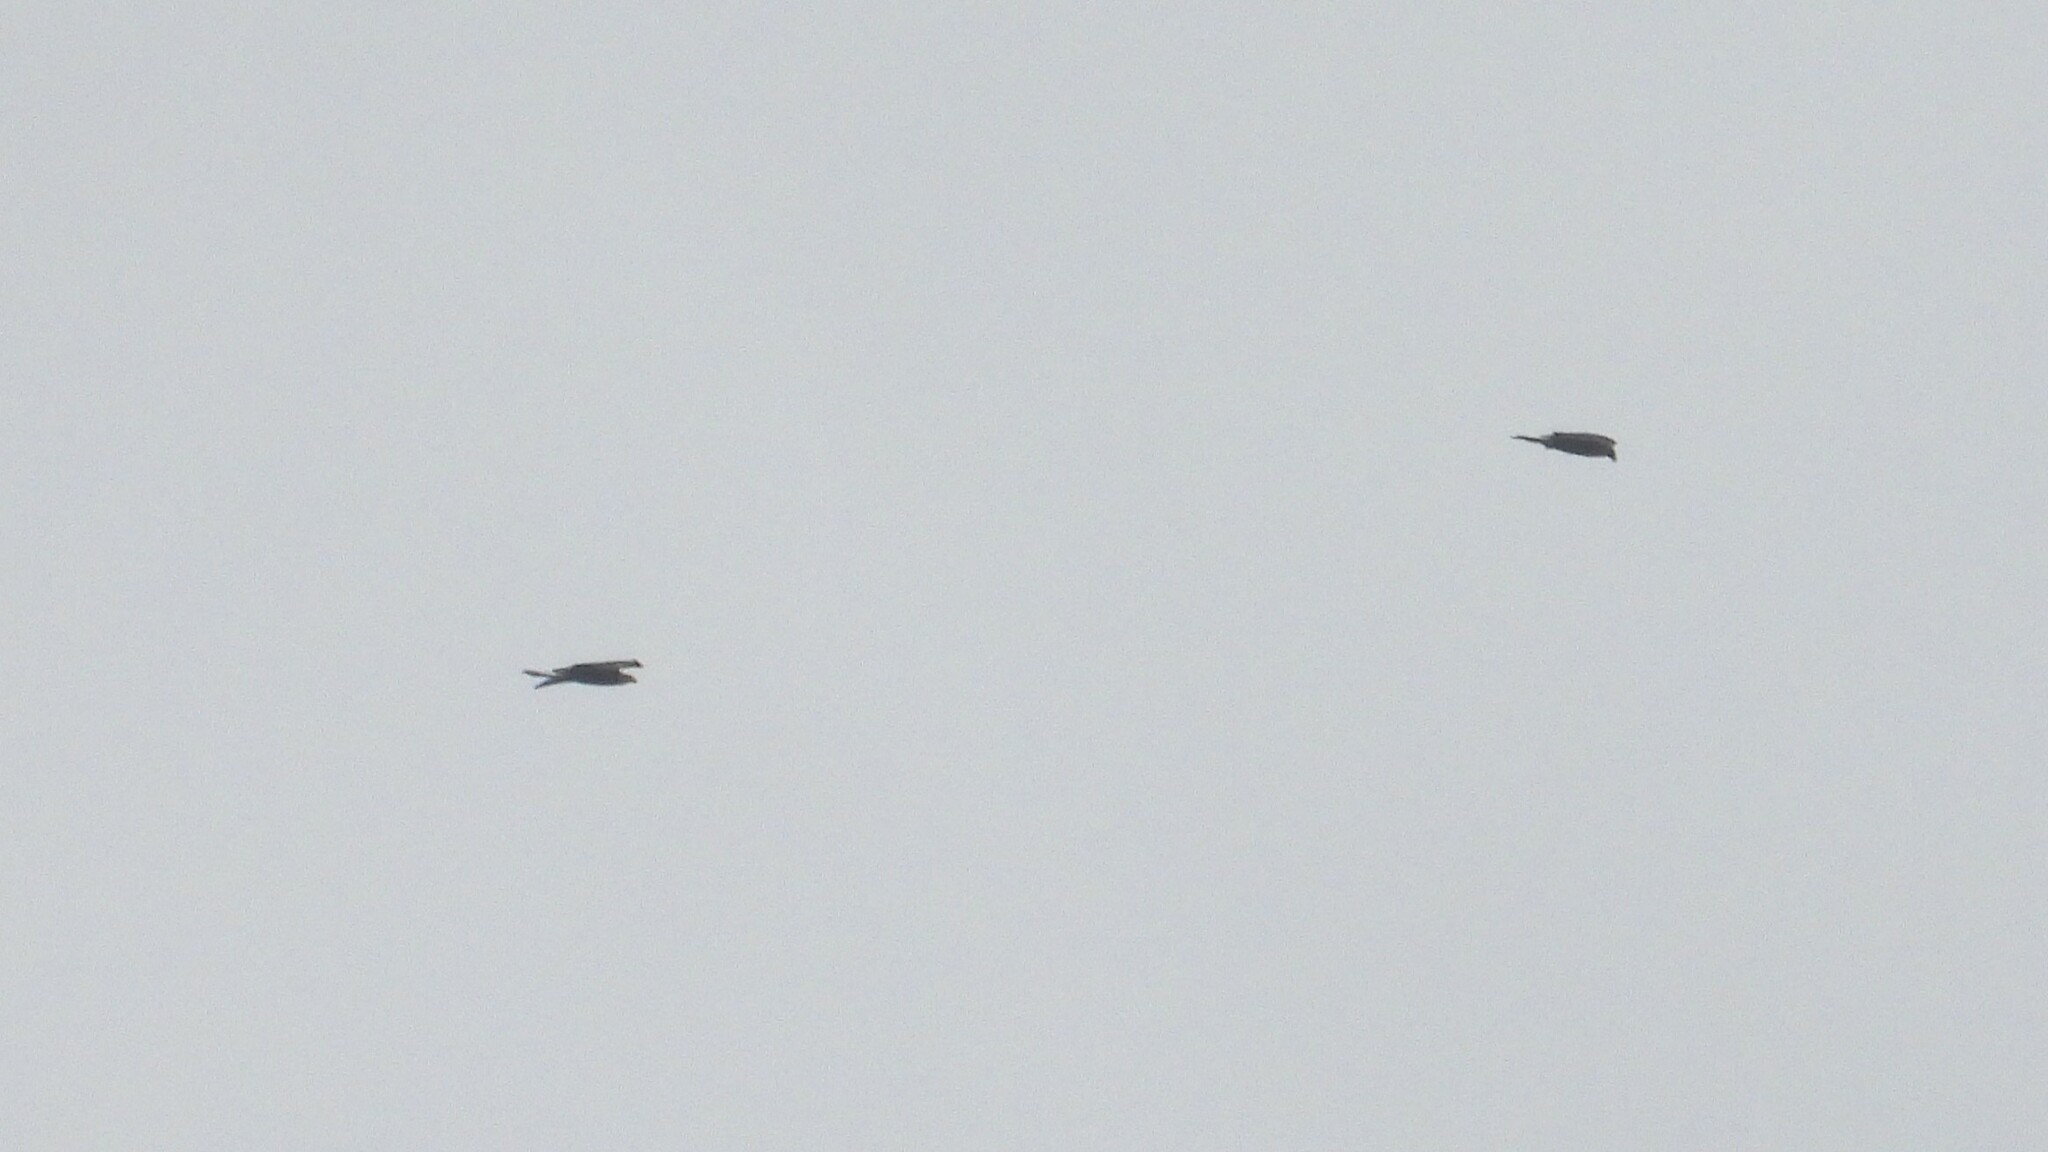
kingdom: Animalia
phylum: Chordata
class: Aves
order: Accipitriformes
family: Accipitridae
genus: Aquila
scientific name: Aquila chrysaetos
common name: Golden eagle
